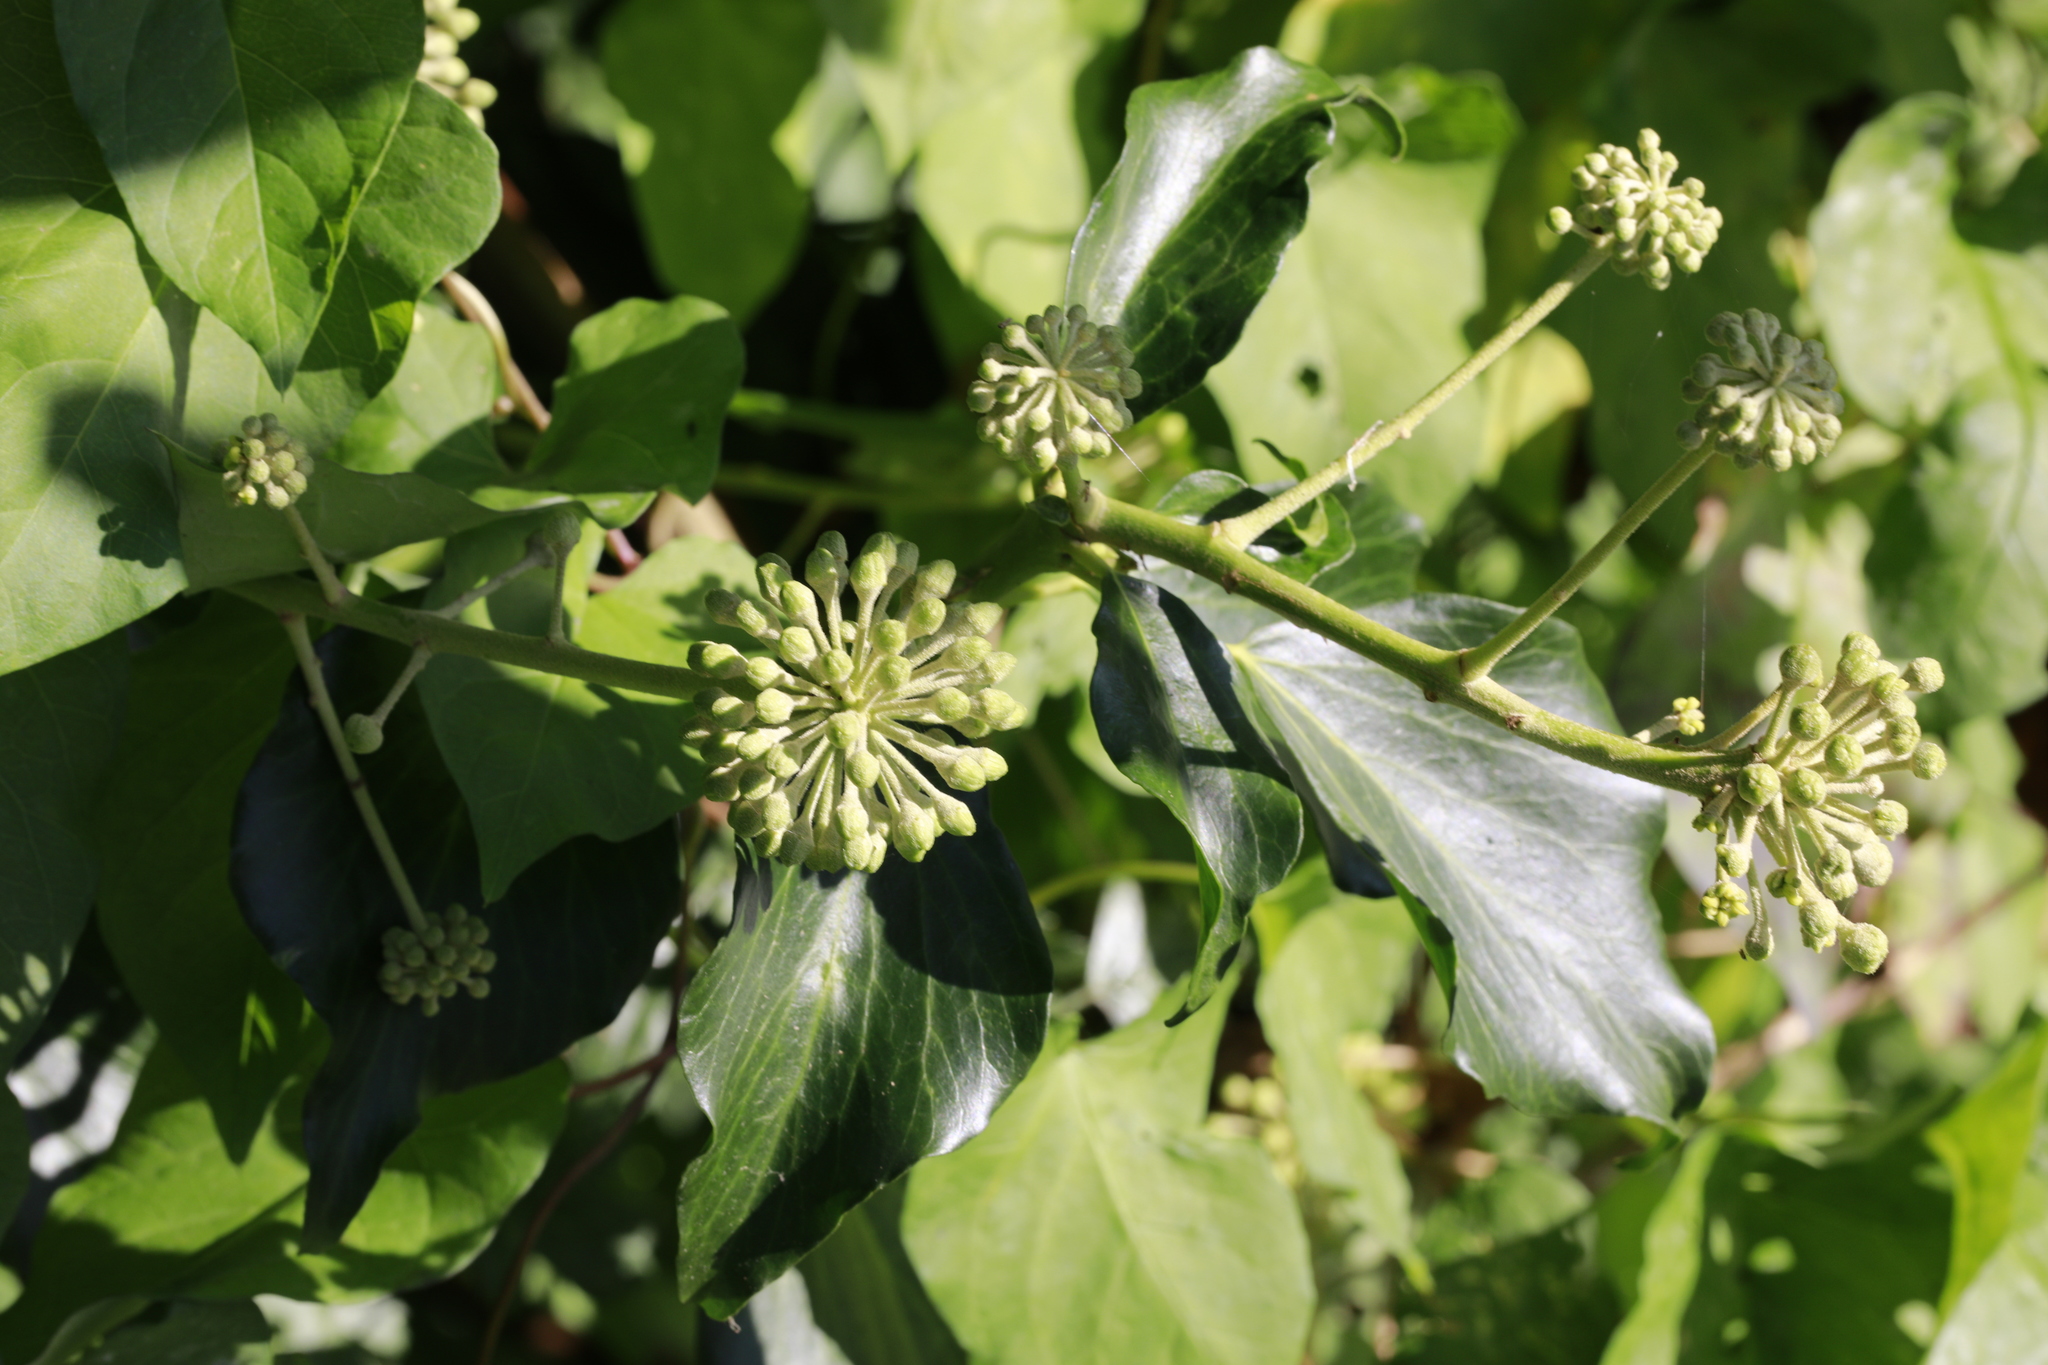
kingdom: Plantae
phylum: Tracheophyta
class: Magnoliopsida
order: Apiales
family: Araliaceae
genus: Hedera
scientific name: Hedera helix
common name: Ivy
